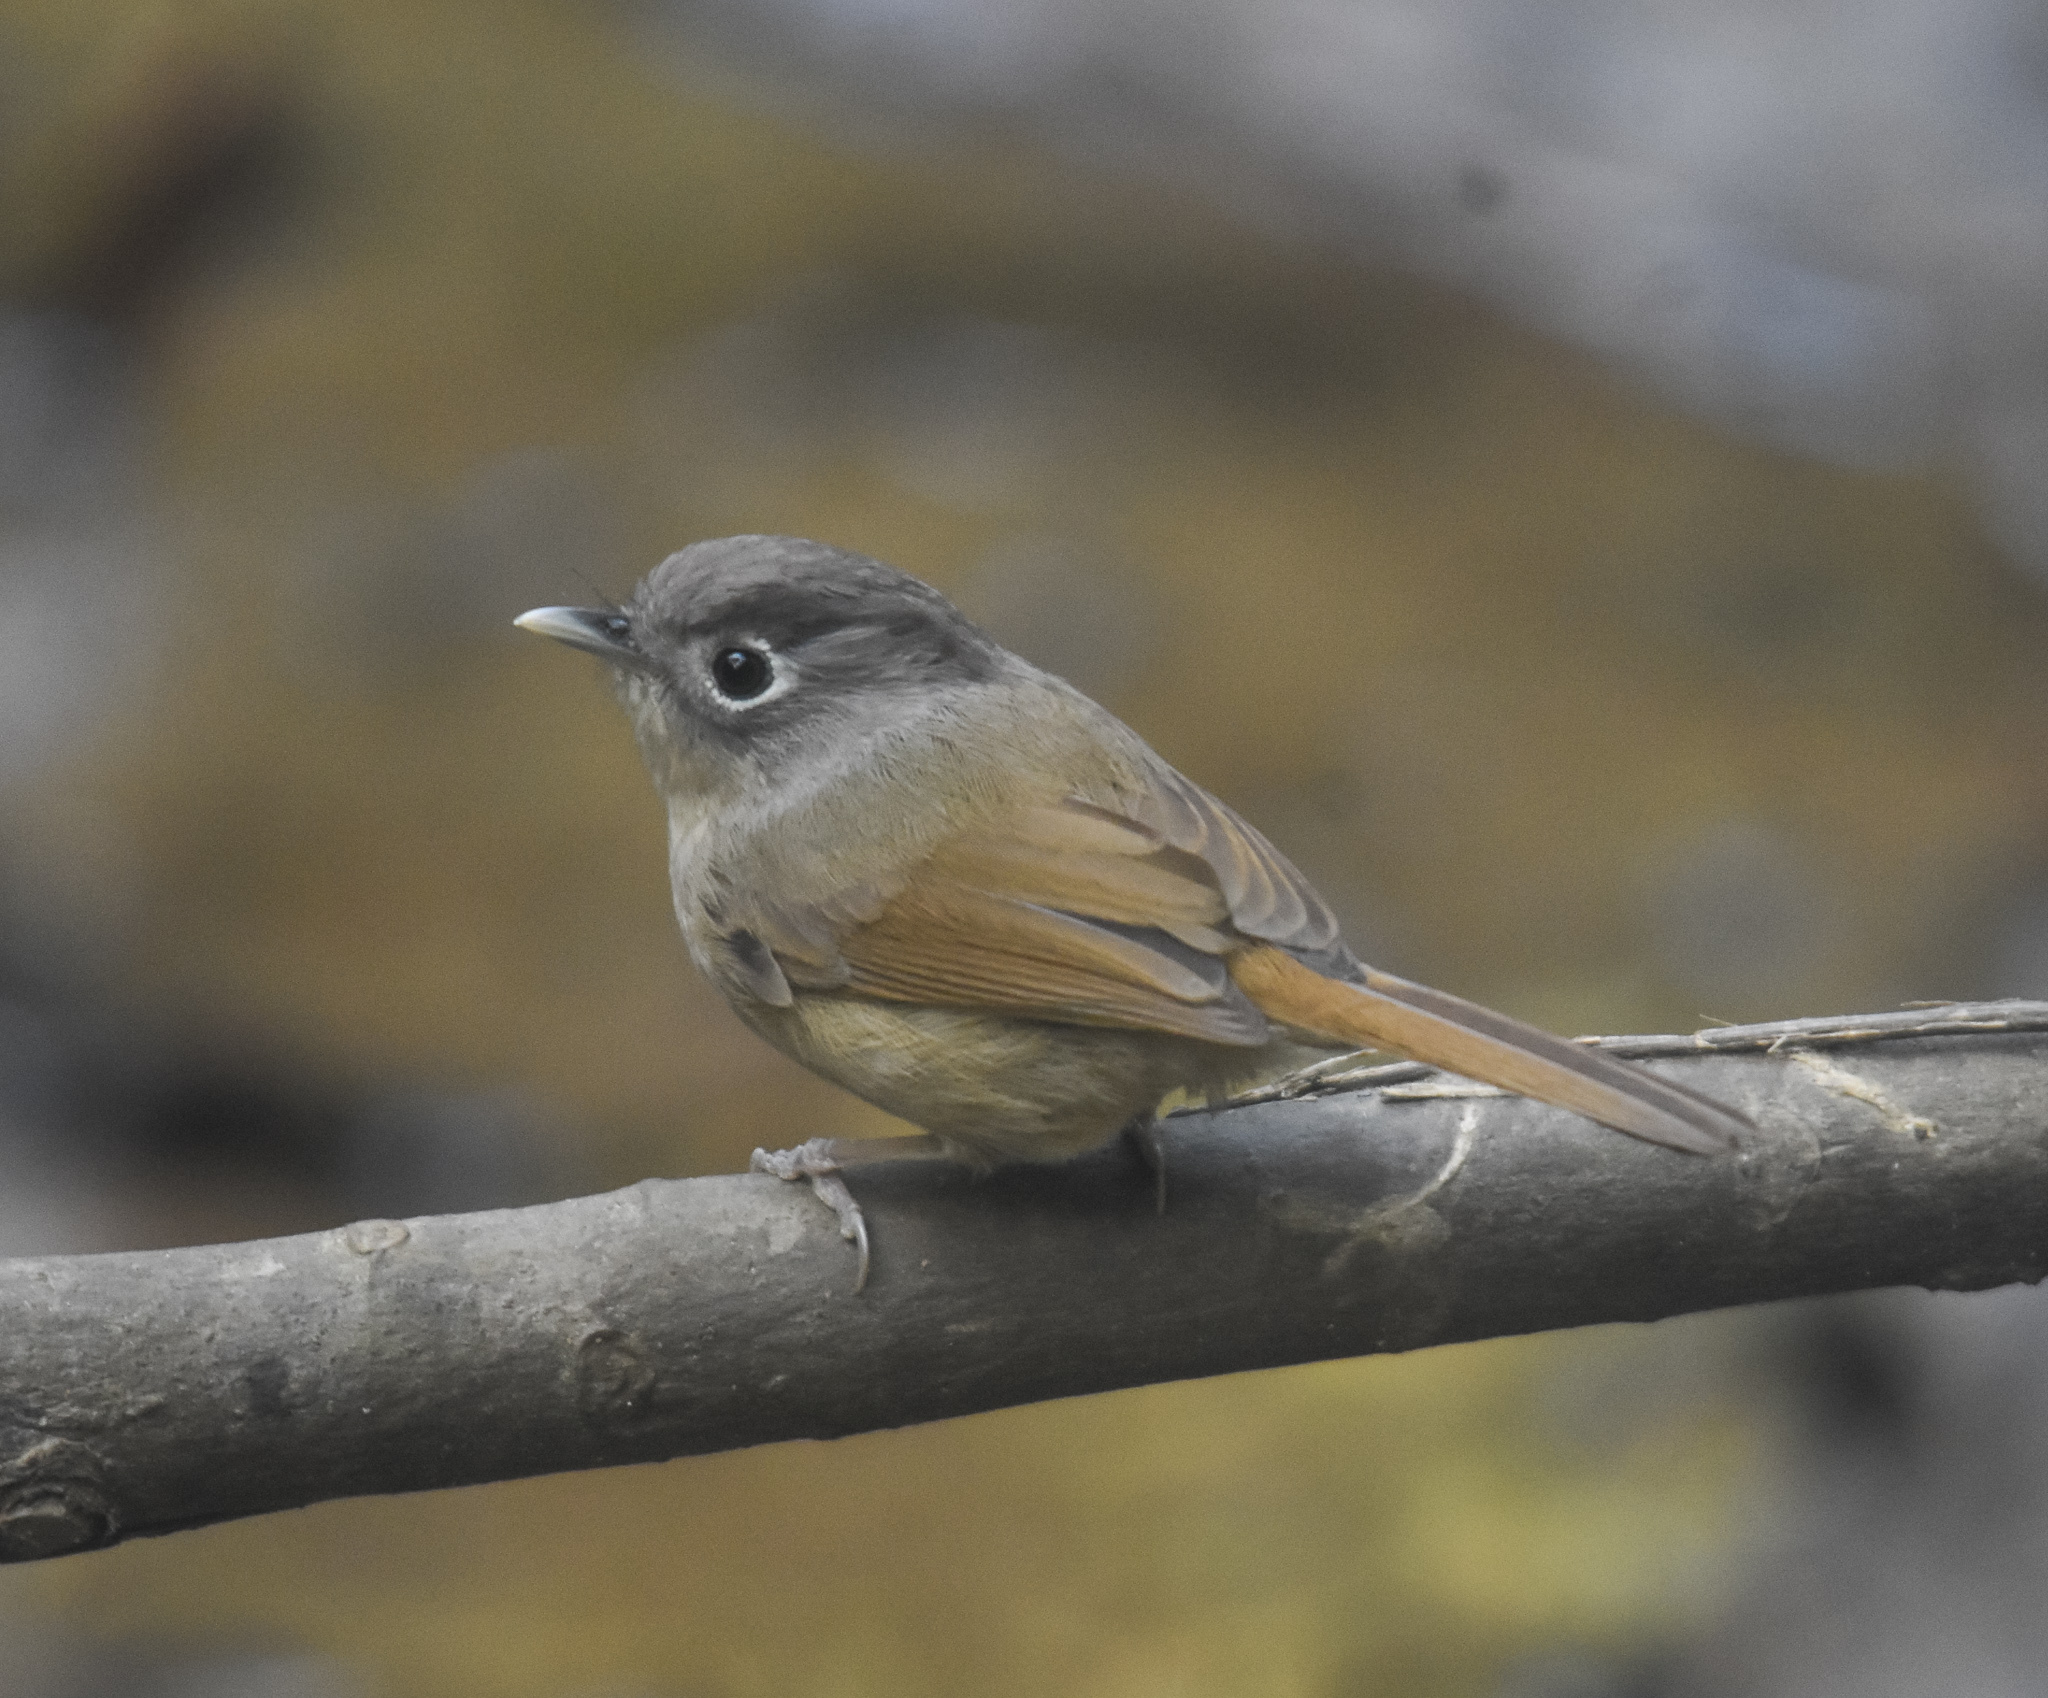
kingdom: Animalia
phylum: Chordata
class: Aves
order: Passeriformes
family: Pellorneidae
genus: Alcippe
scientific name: Alcippe nipalensis
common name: Nepal fulvetta
